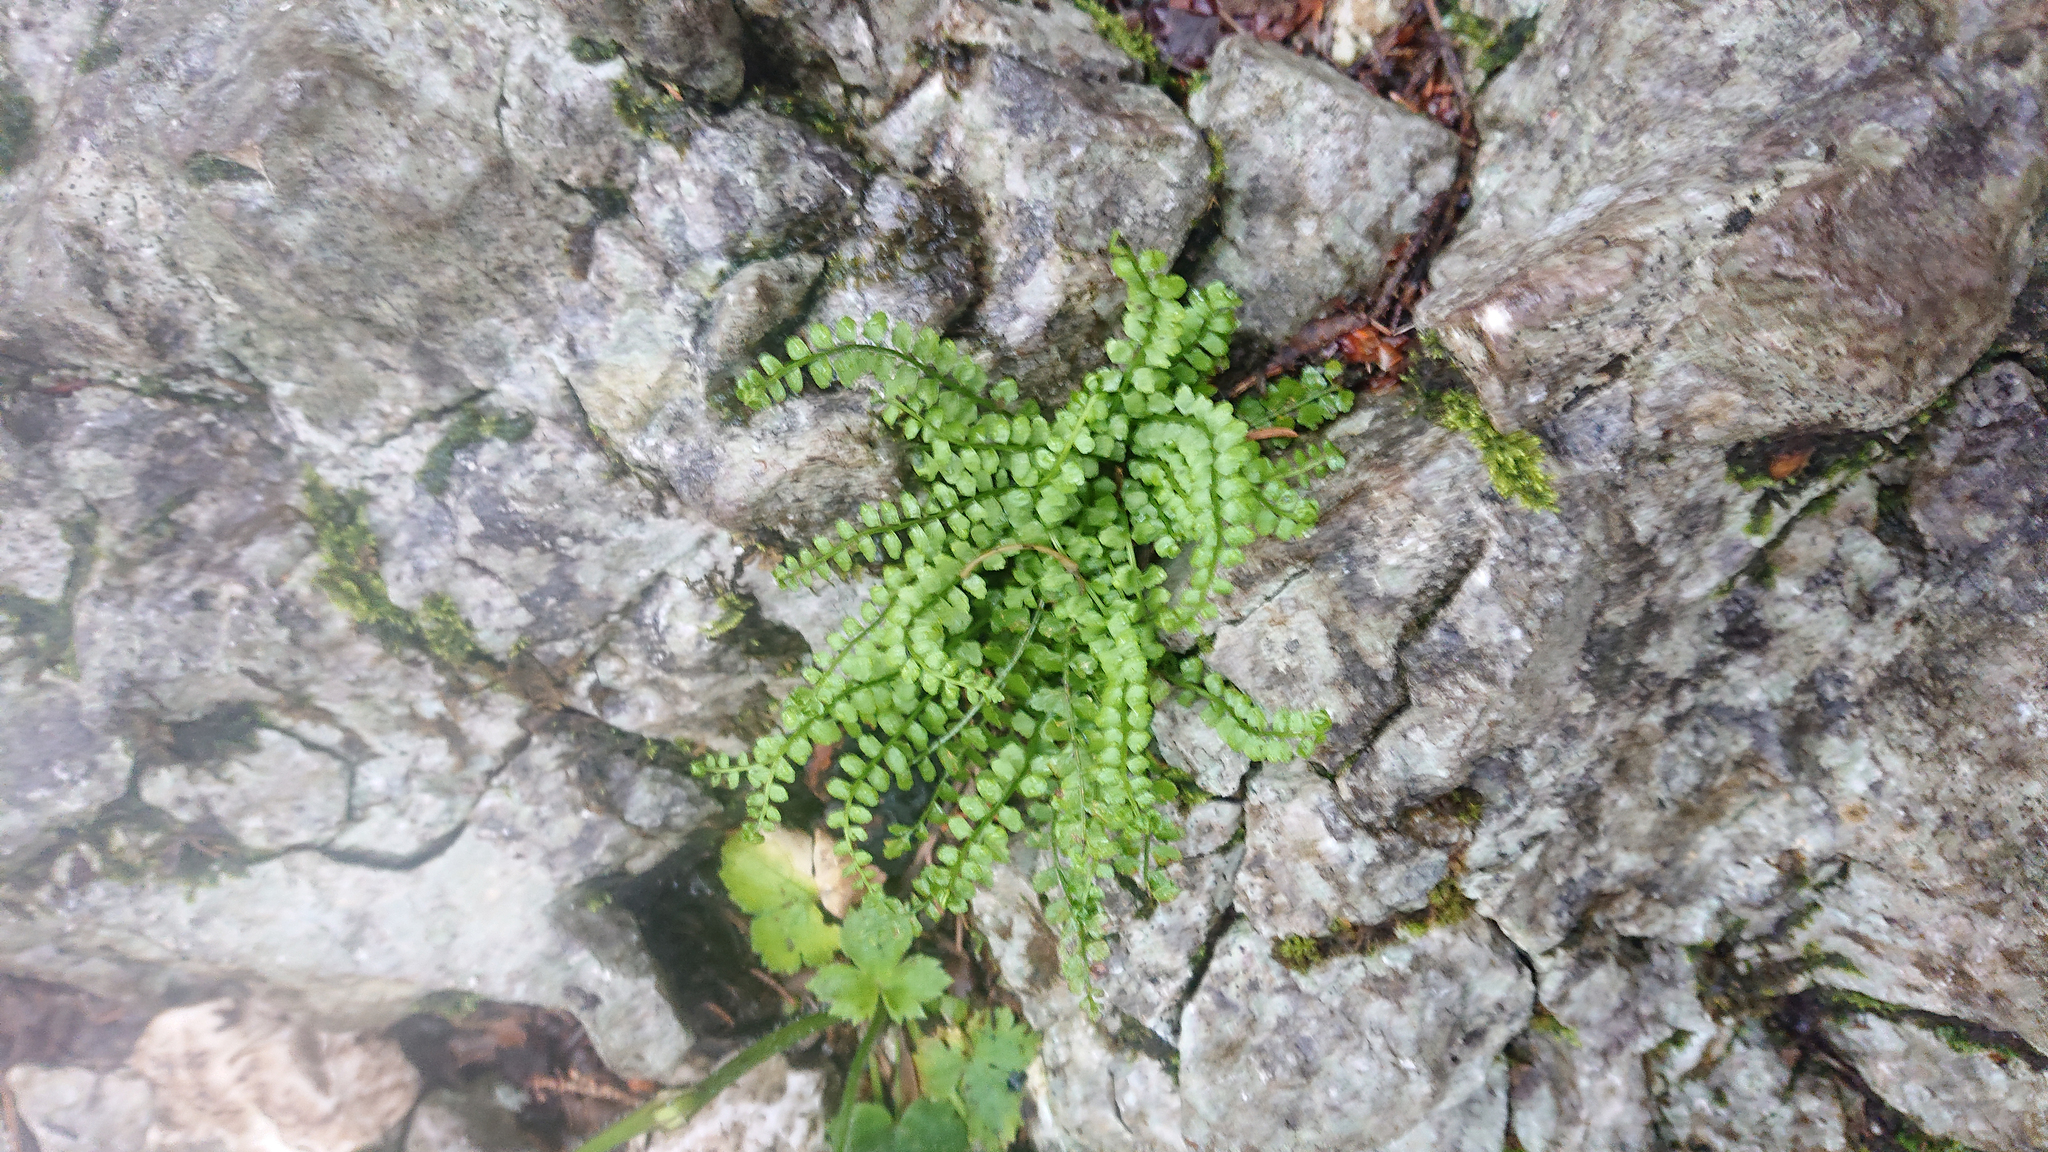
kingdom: Plantae
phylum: Tracheophyta
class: Polypodiopsida
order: Polypodiales
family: Aspleniaceae
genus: Asplenium
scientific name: Asplenium viride
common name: Green spleenwort
